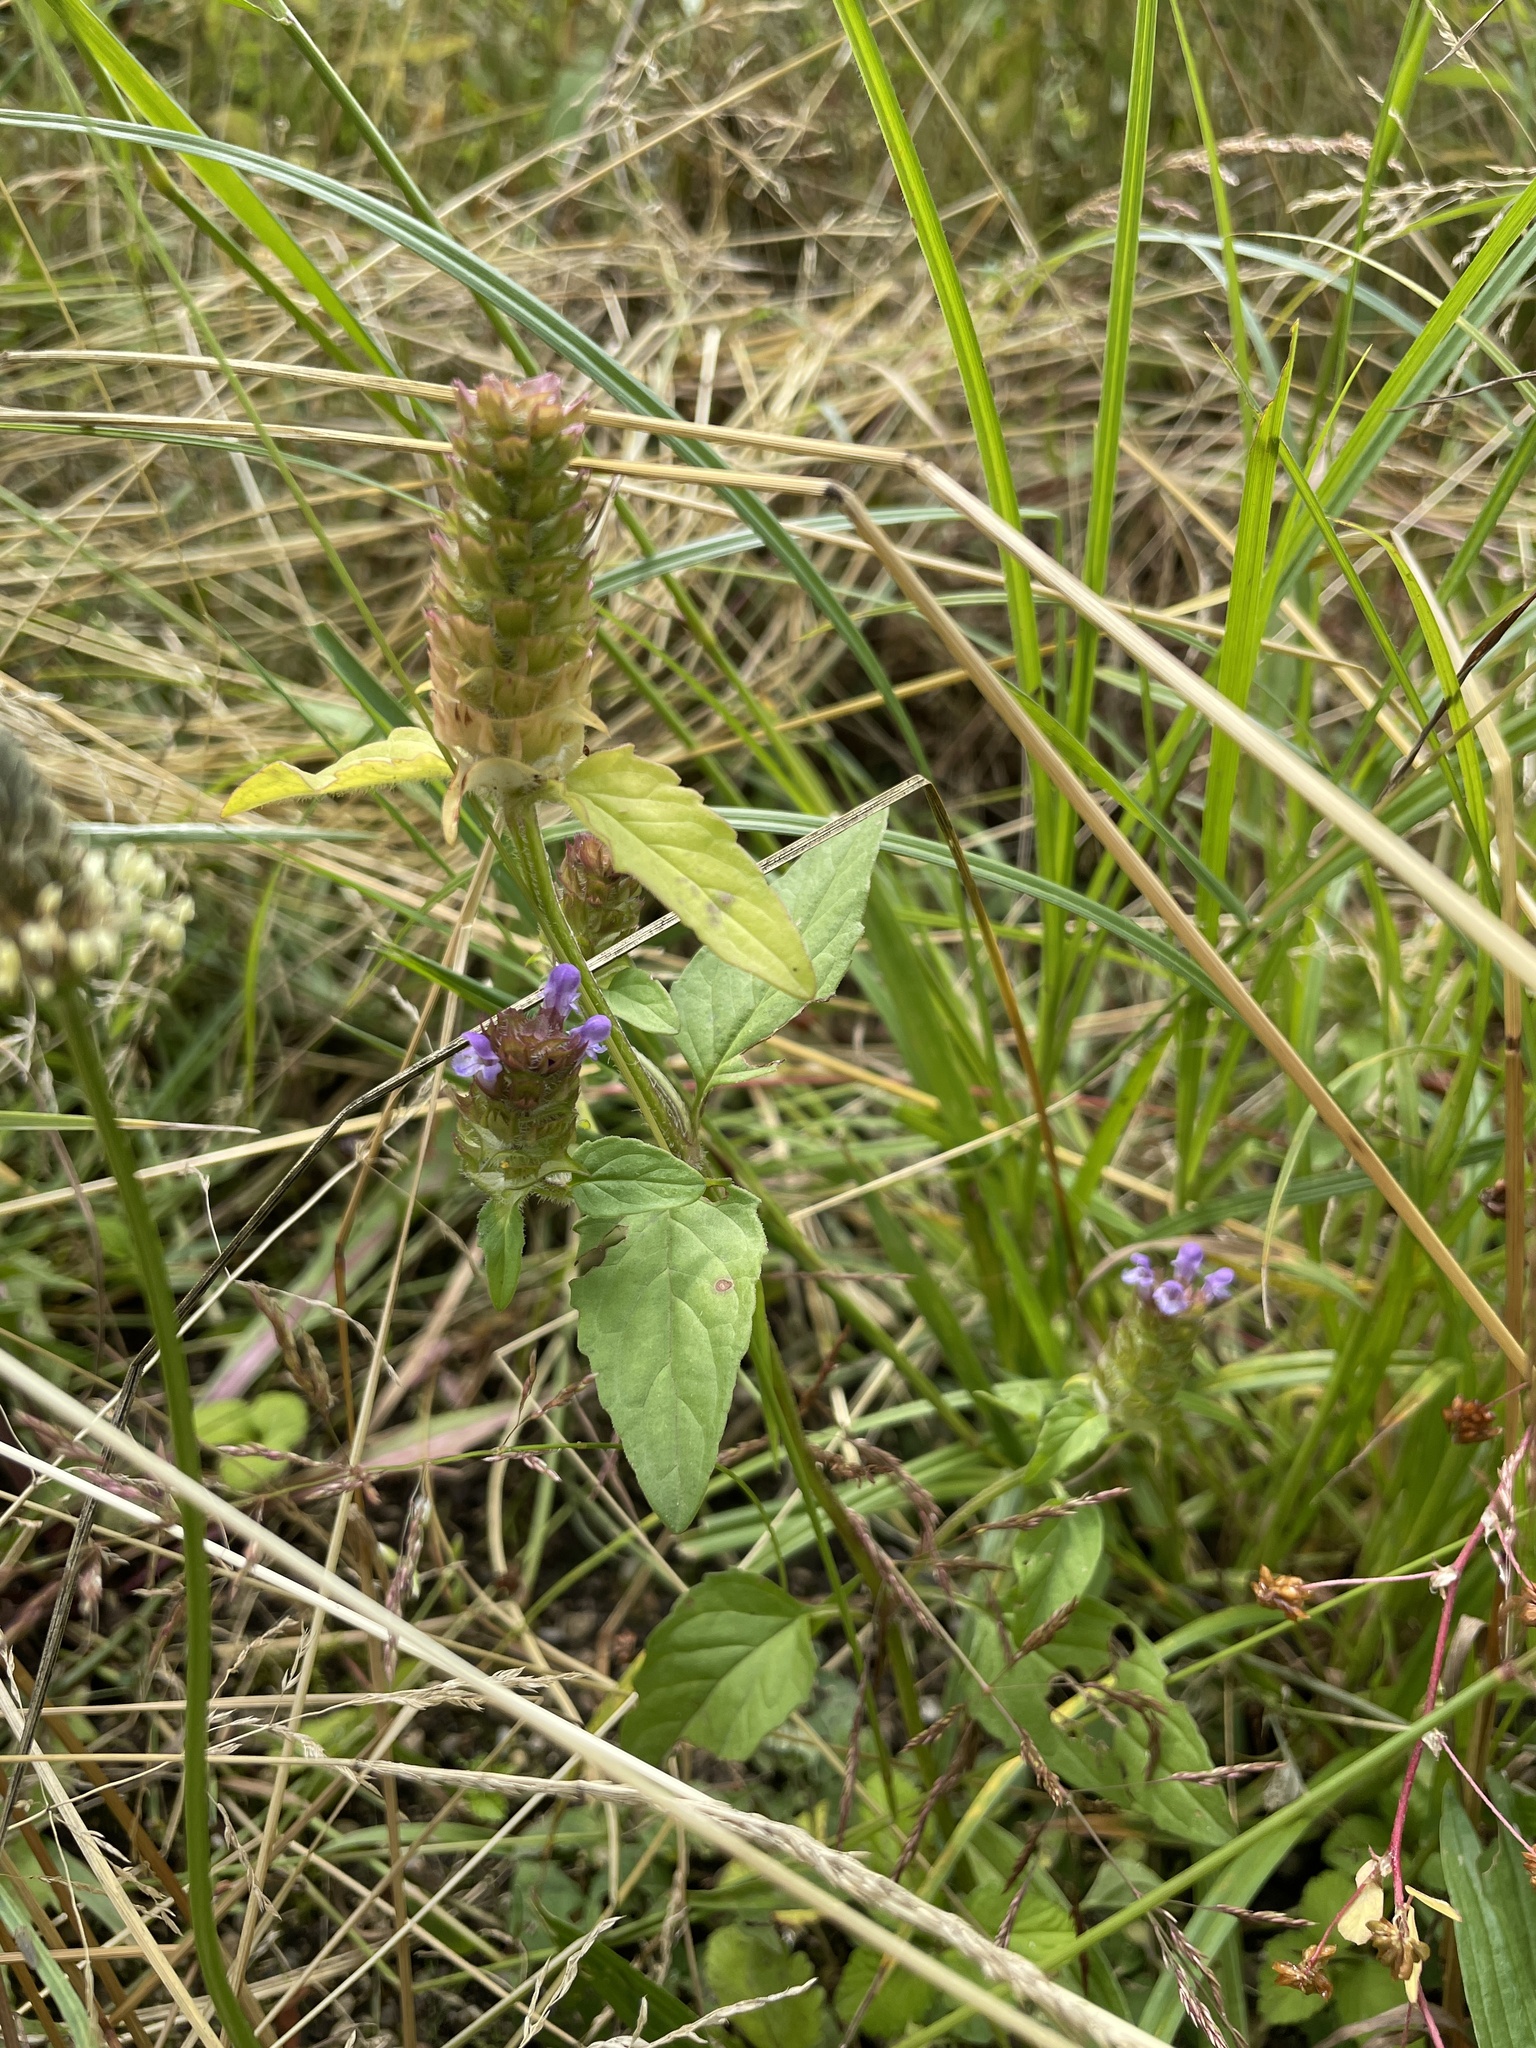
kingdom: Plantae
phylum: Tracheophyta
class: Magnoliopsida
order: Lamiales
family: Lamiaceae
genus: Prunella
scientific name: Prunella vulgaris
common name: Heal-all
